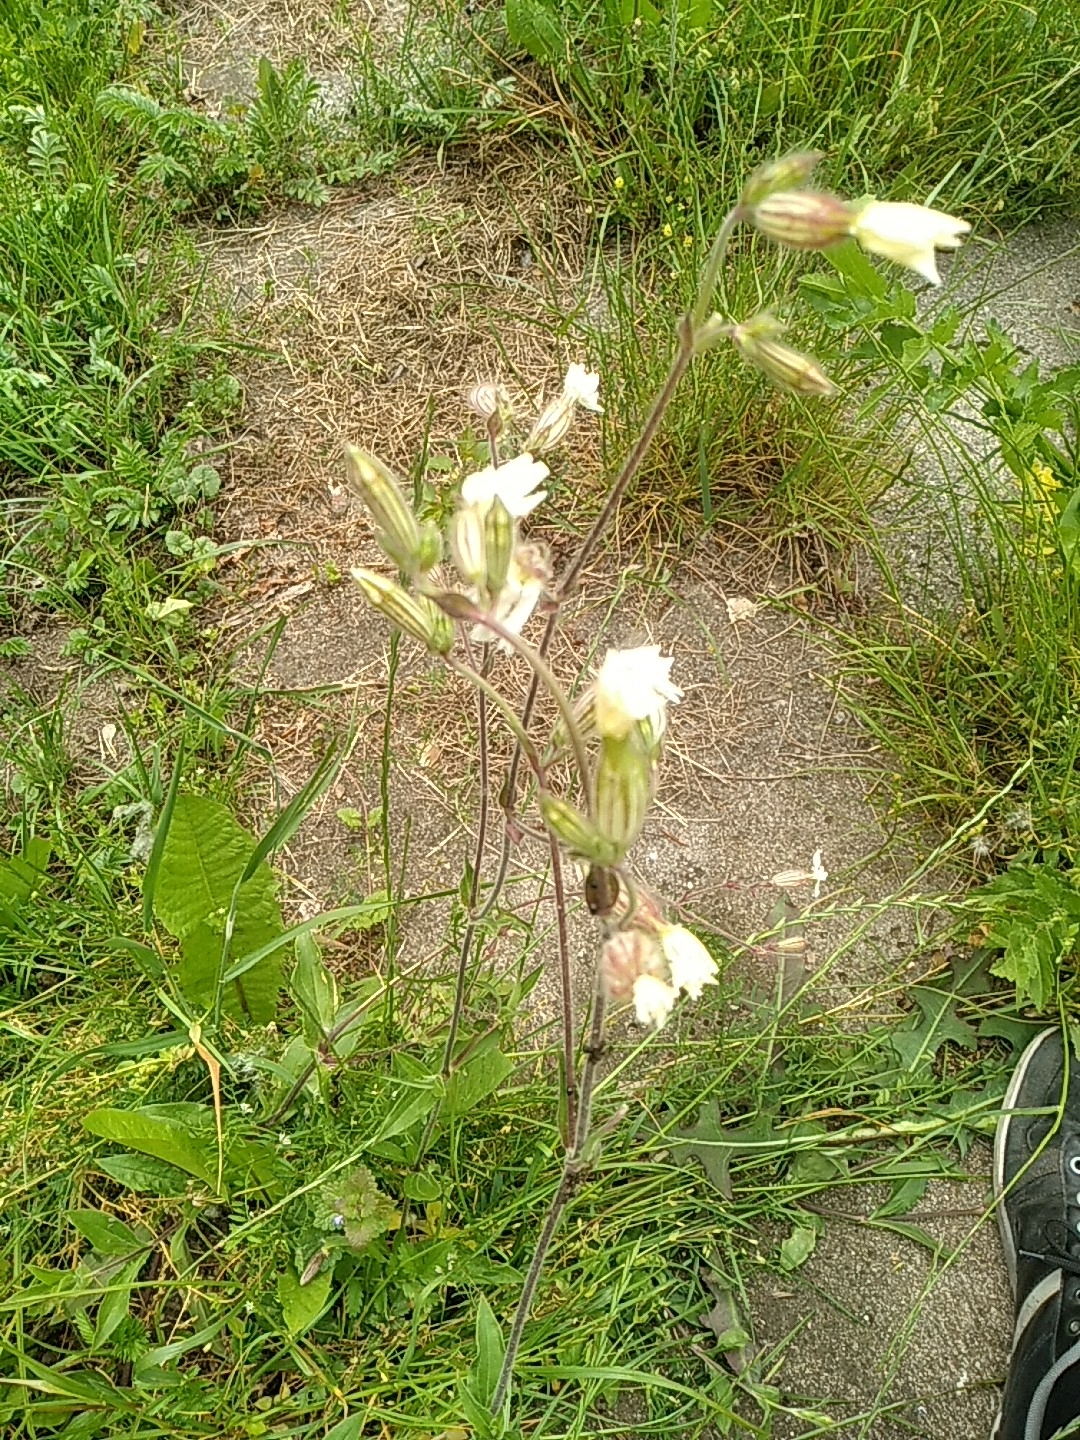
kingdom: Plantae
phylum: Tracheophyta
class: Magnoliopsida
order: Caryophyllales
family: Caryophyllaceae
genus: Silene
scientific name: Silene latifolia
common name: White campion
